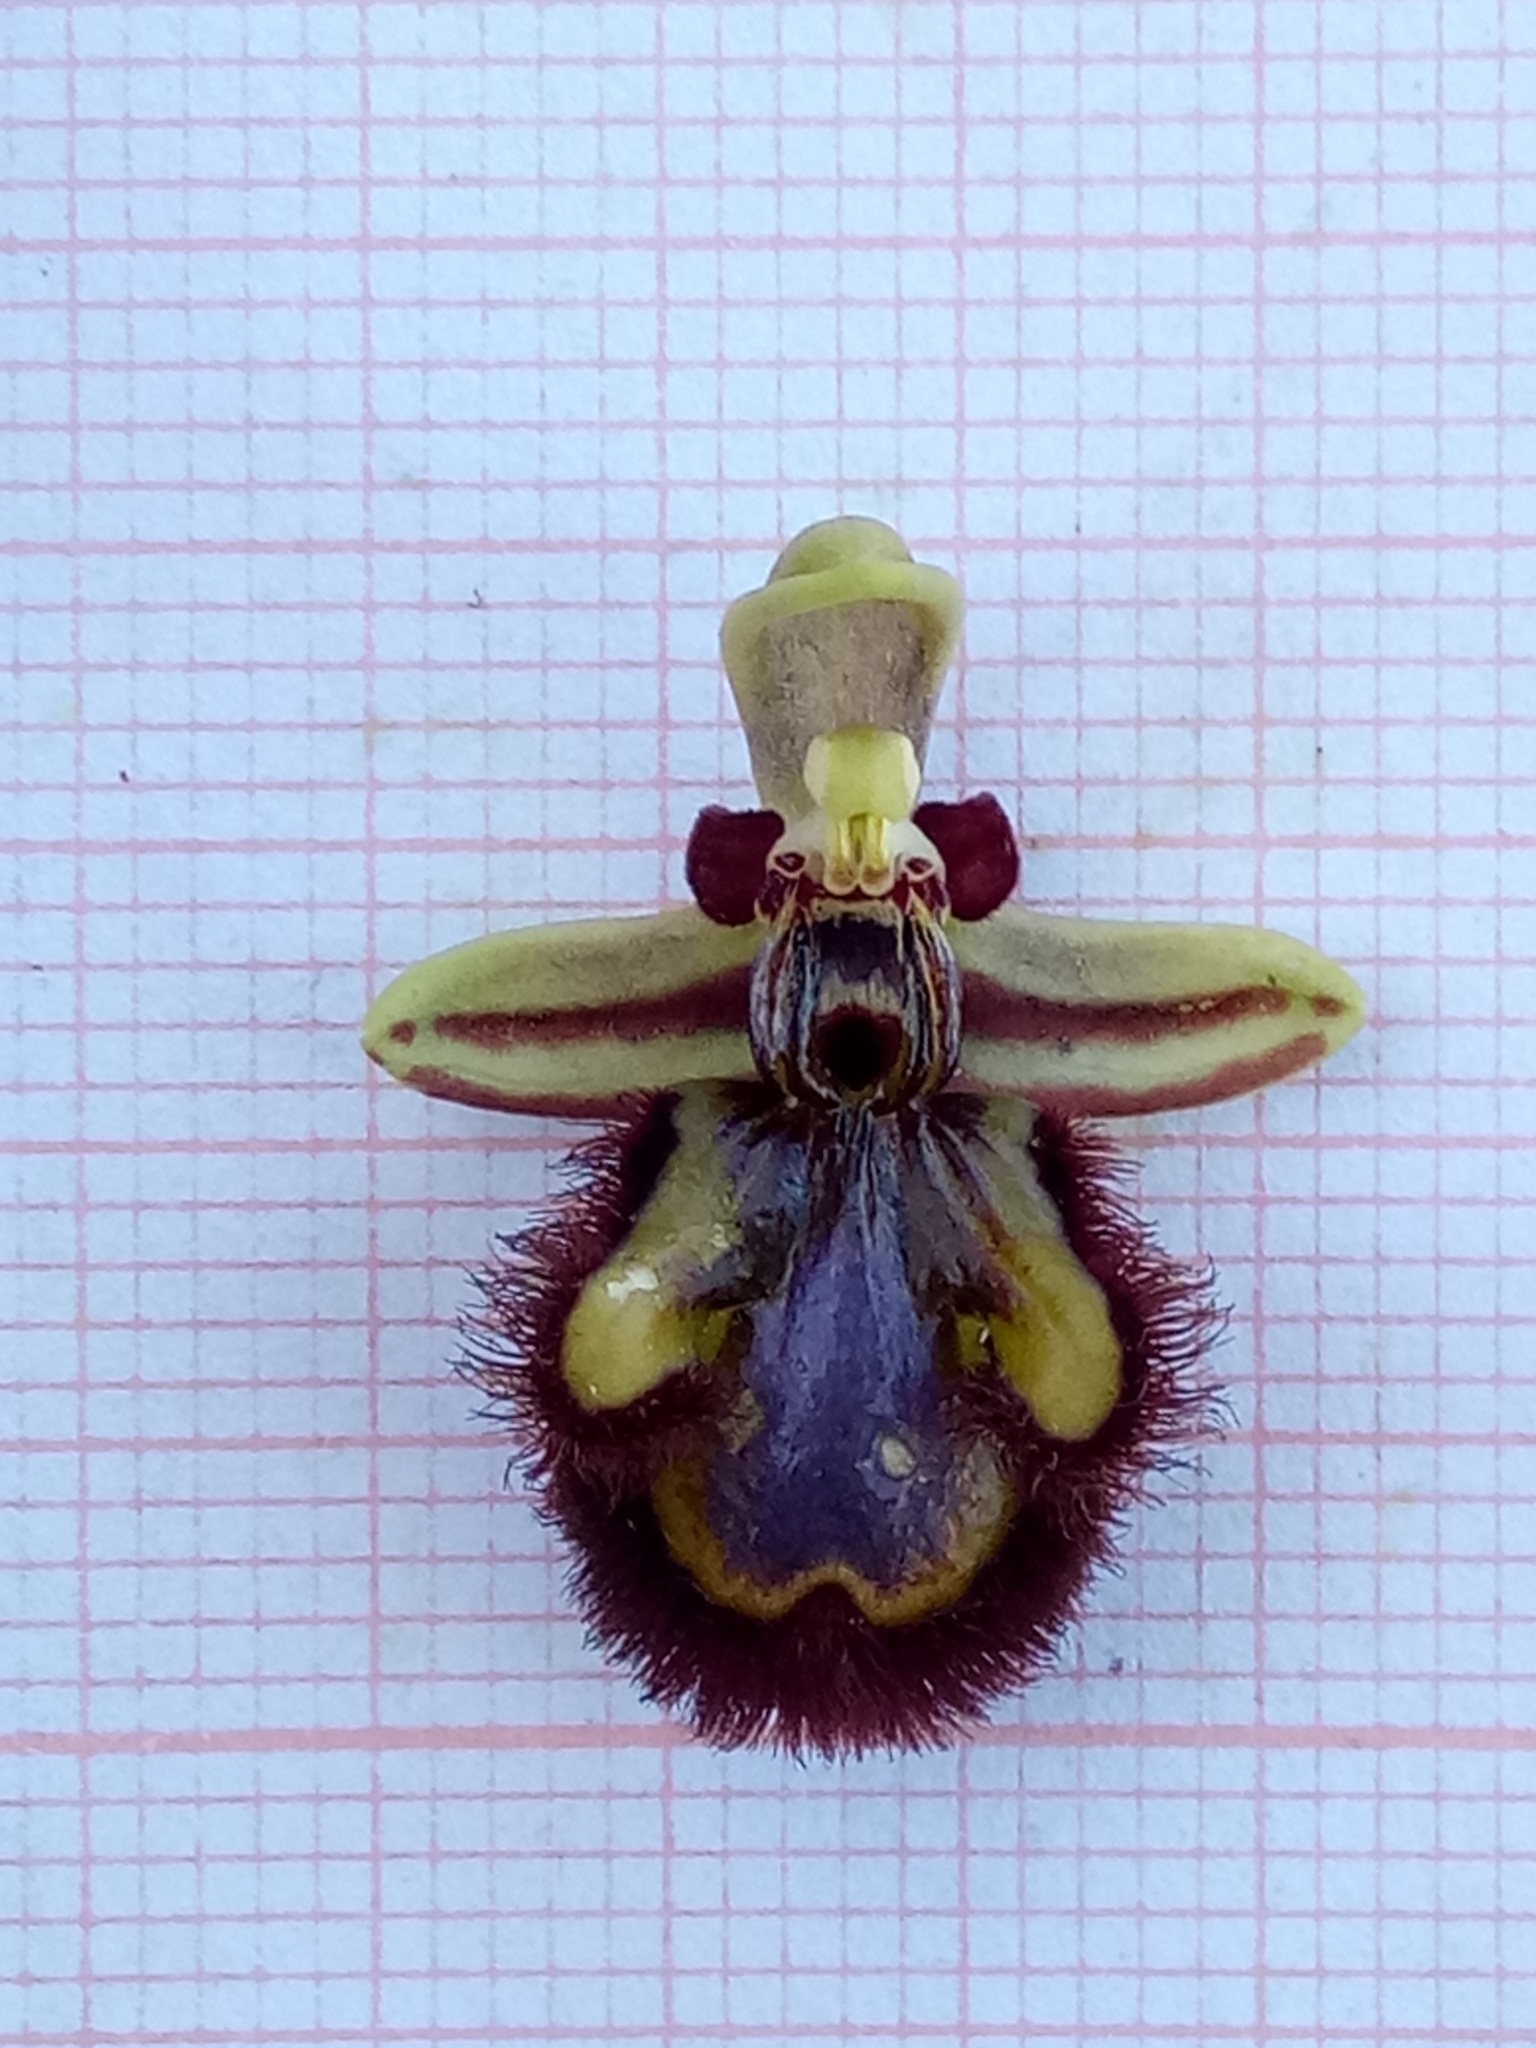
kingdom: Plantae
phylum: Tracheophyta
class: Liliopsida
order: Asparagales
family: Orchidaceae
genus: Ophrys
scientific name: Ophrys speculum
